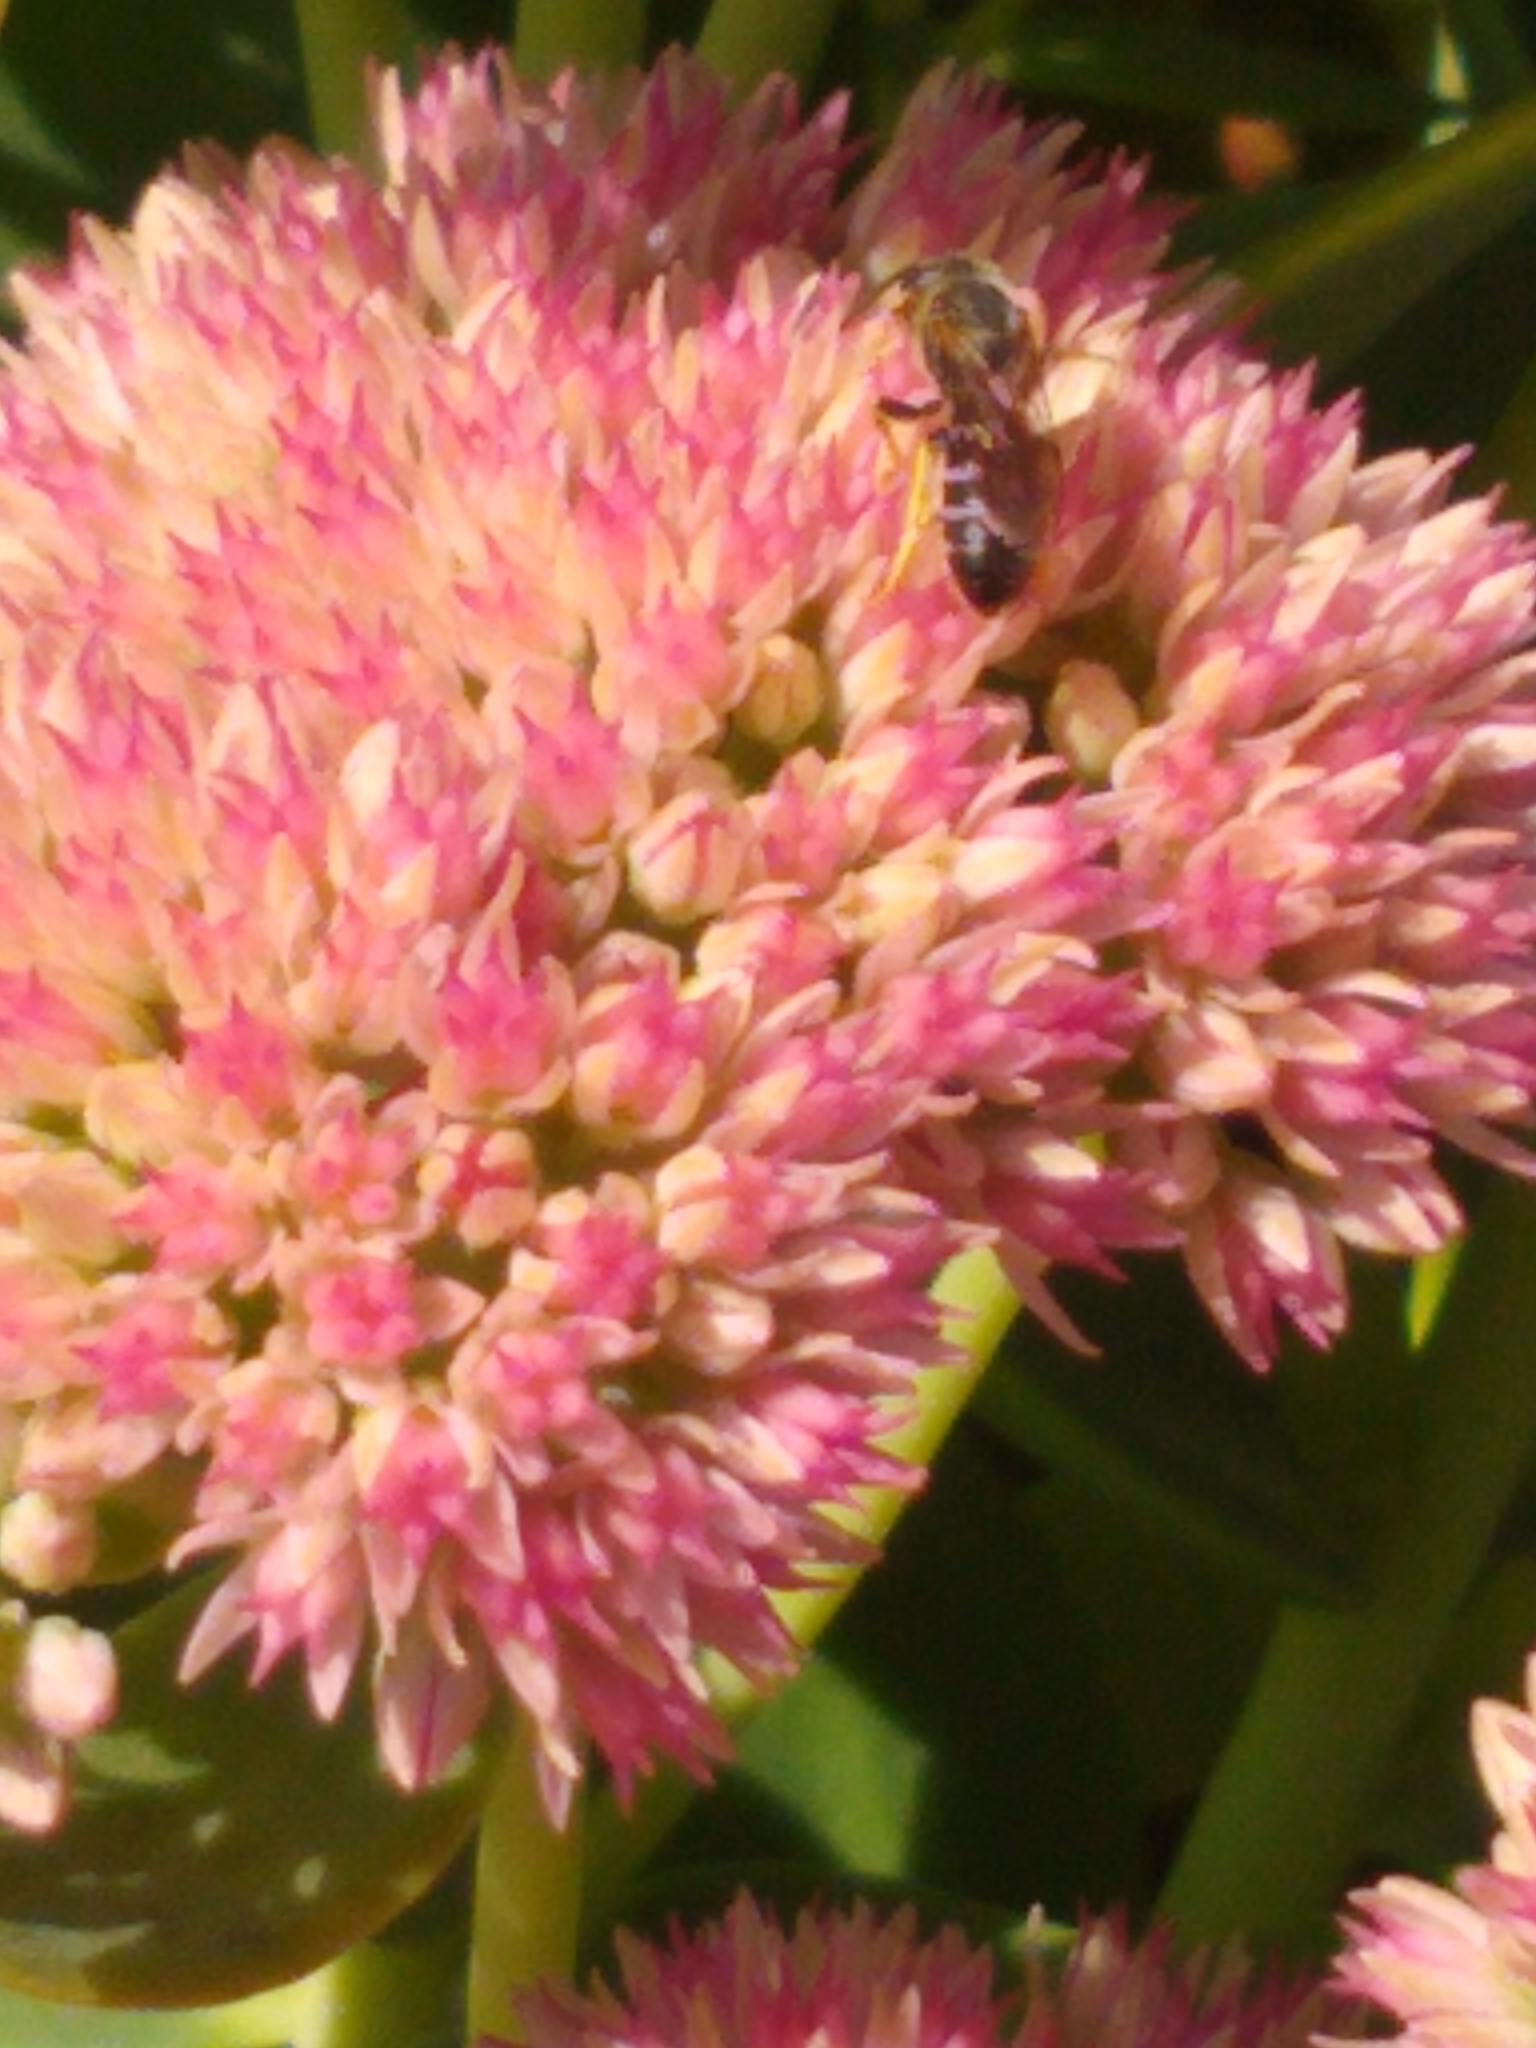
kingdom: Animalia
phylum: Arthropoda
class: Insecta
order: Hymenoptera
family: Halictidae
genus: Halictus
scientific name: Halictus rubicundus
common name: Orange-legged furrow bee
